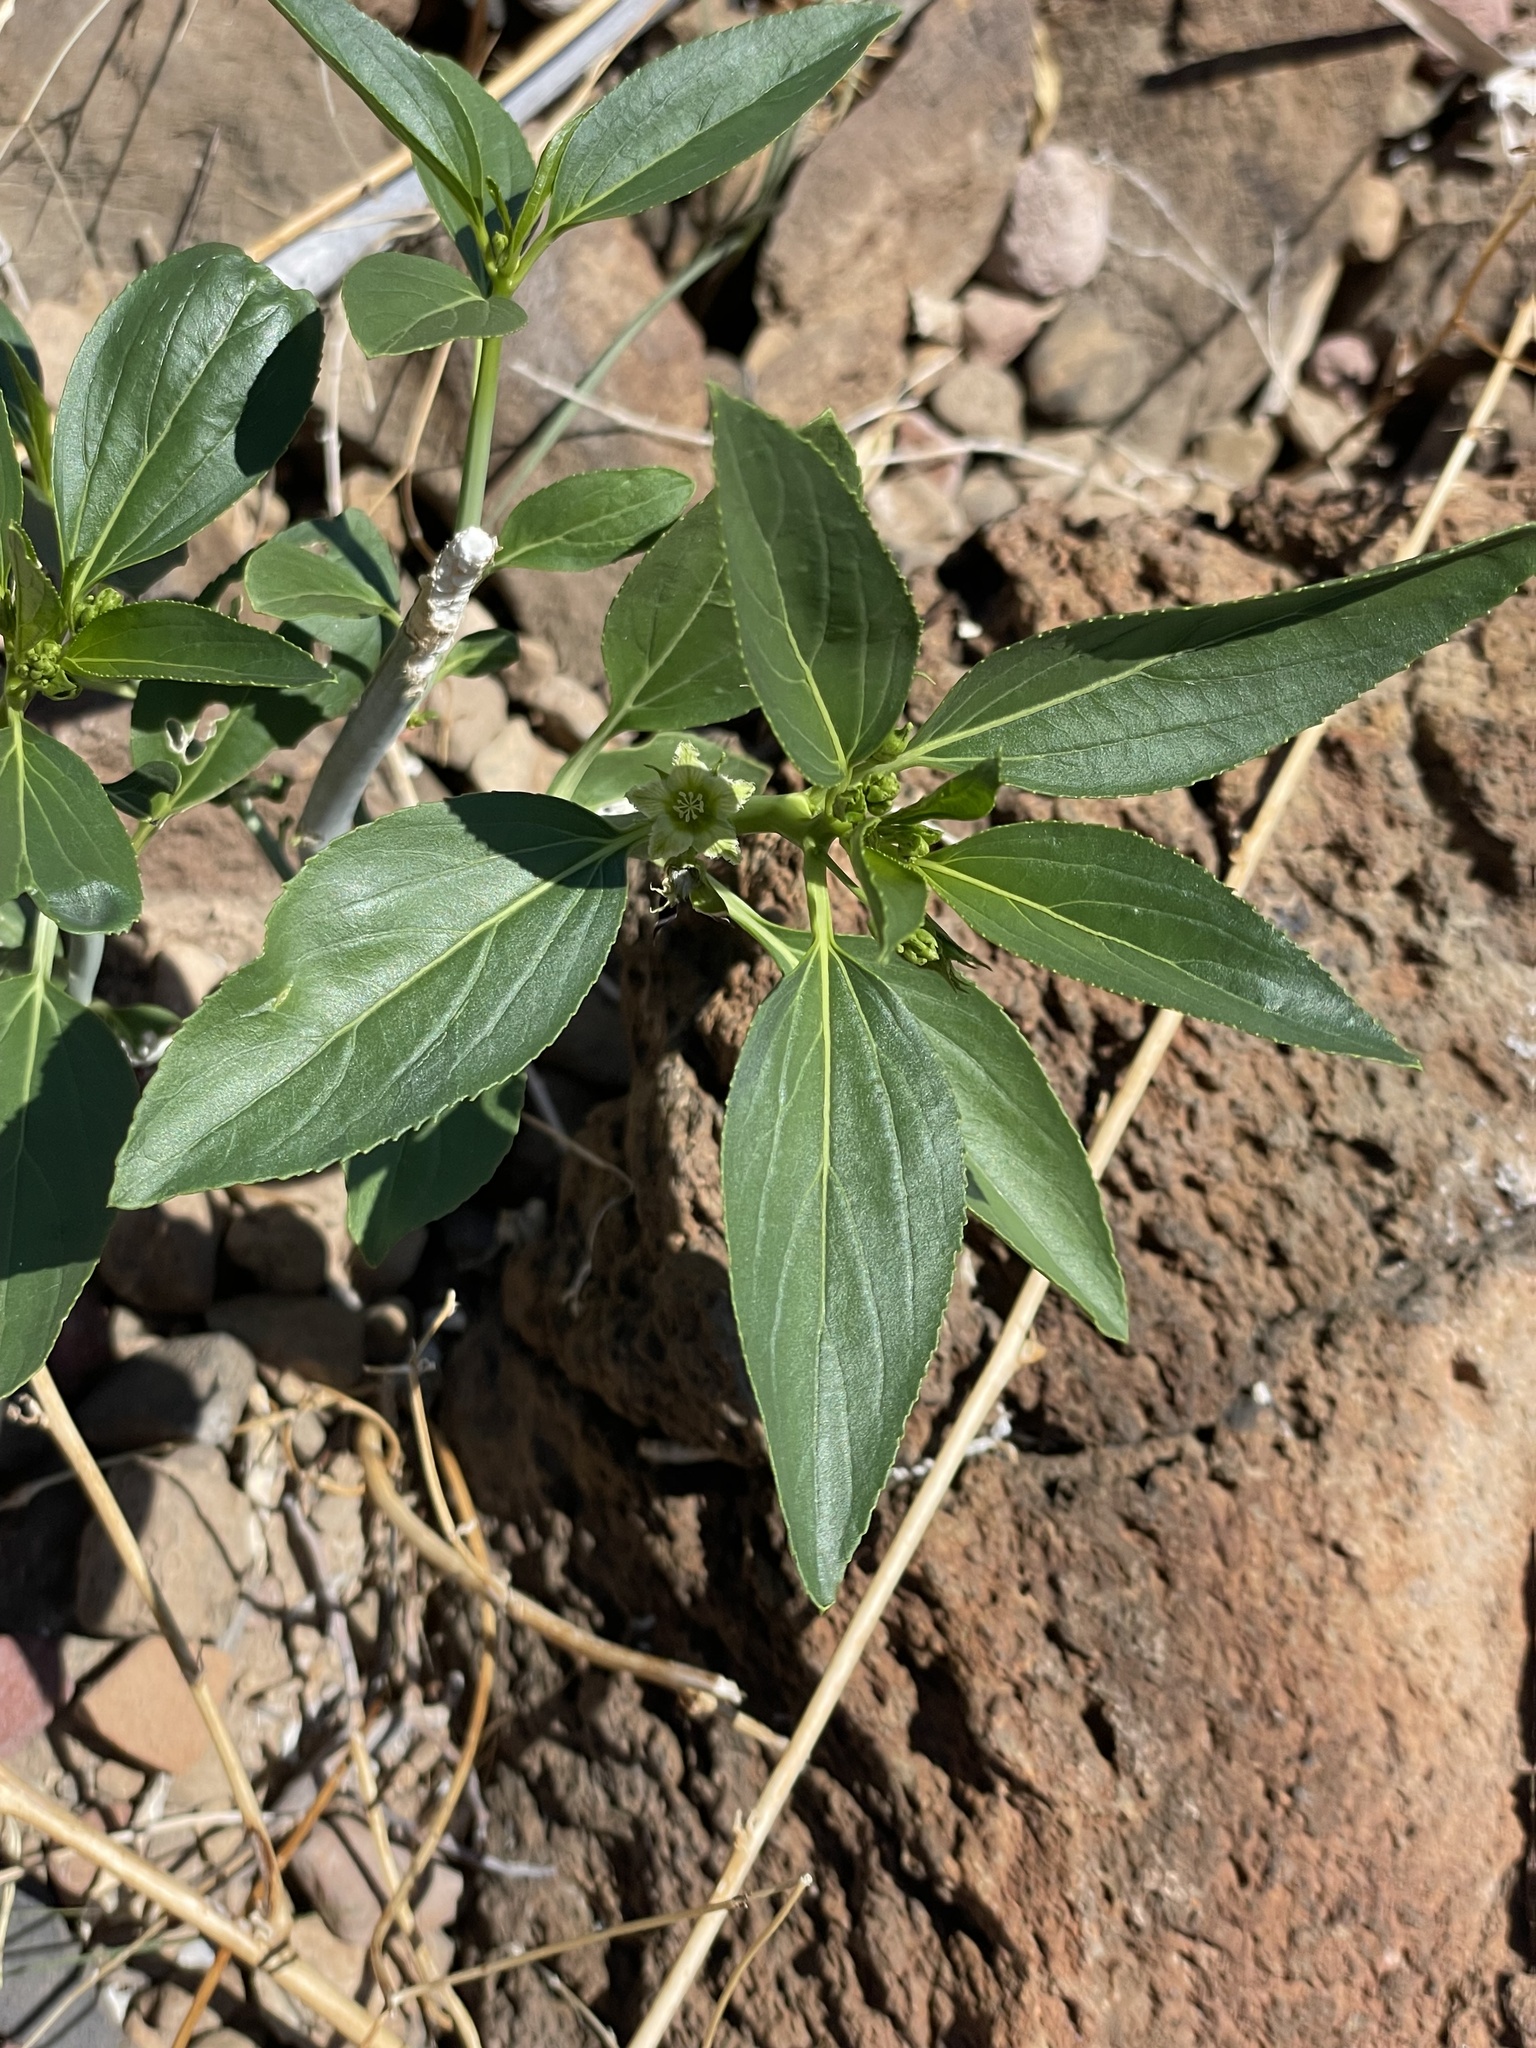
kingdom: Plantae
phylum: Tracheophyta
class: Magnoliopsida
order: Malpighiales
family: Euphorbiaceae
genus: Ditaxis
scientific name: Ditaxis brandegeei
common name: Sonoran silverbush
